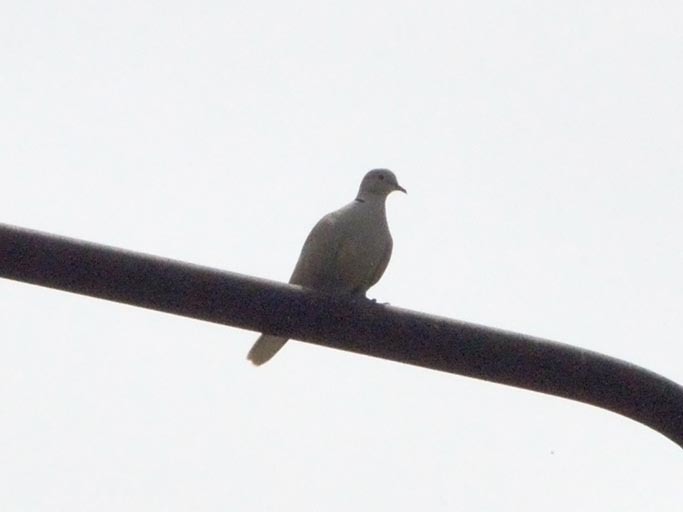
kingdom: Animalia
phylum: Chordata
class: Aves
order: Columbiformes
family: Columbidae
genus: Streptopelia
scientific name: Streptopelia decaocto
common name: Eurasian collared dove
